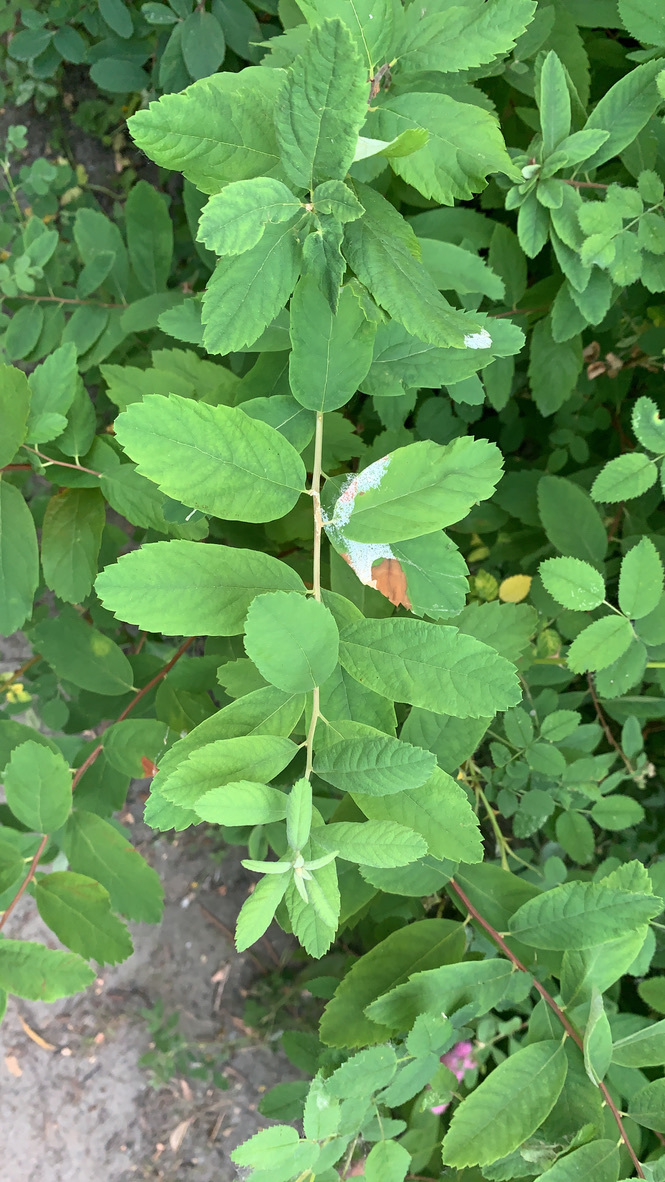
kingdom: Plantae
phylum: Tracheophyta
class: Magnoliopsida
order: Rosales
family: Rosaceae
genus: Spiraea
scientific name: Spiraea douglasii
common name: Steeplebush
